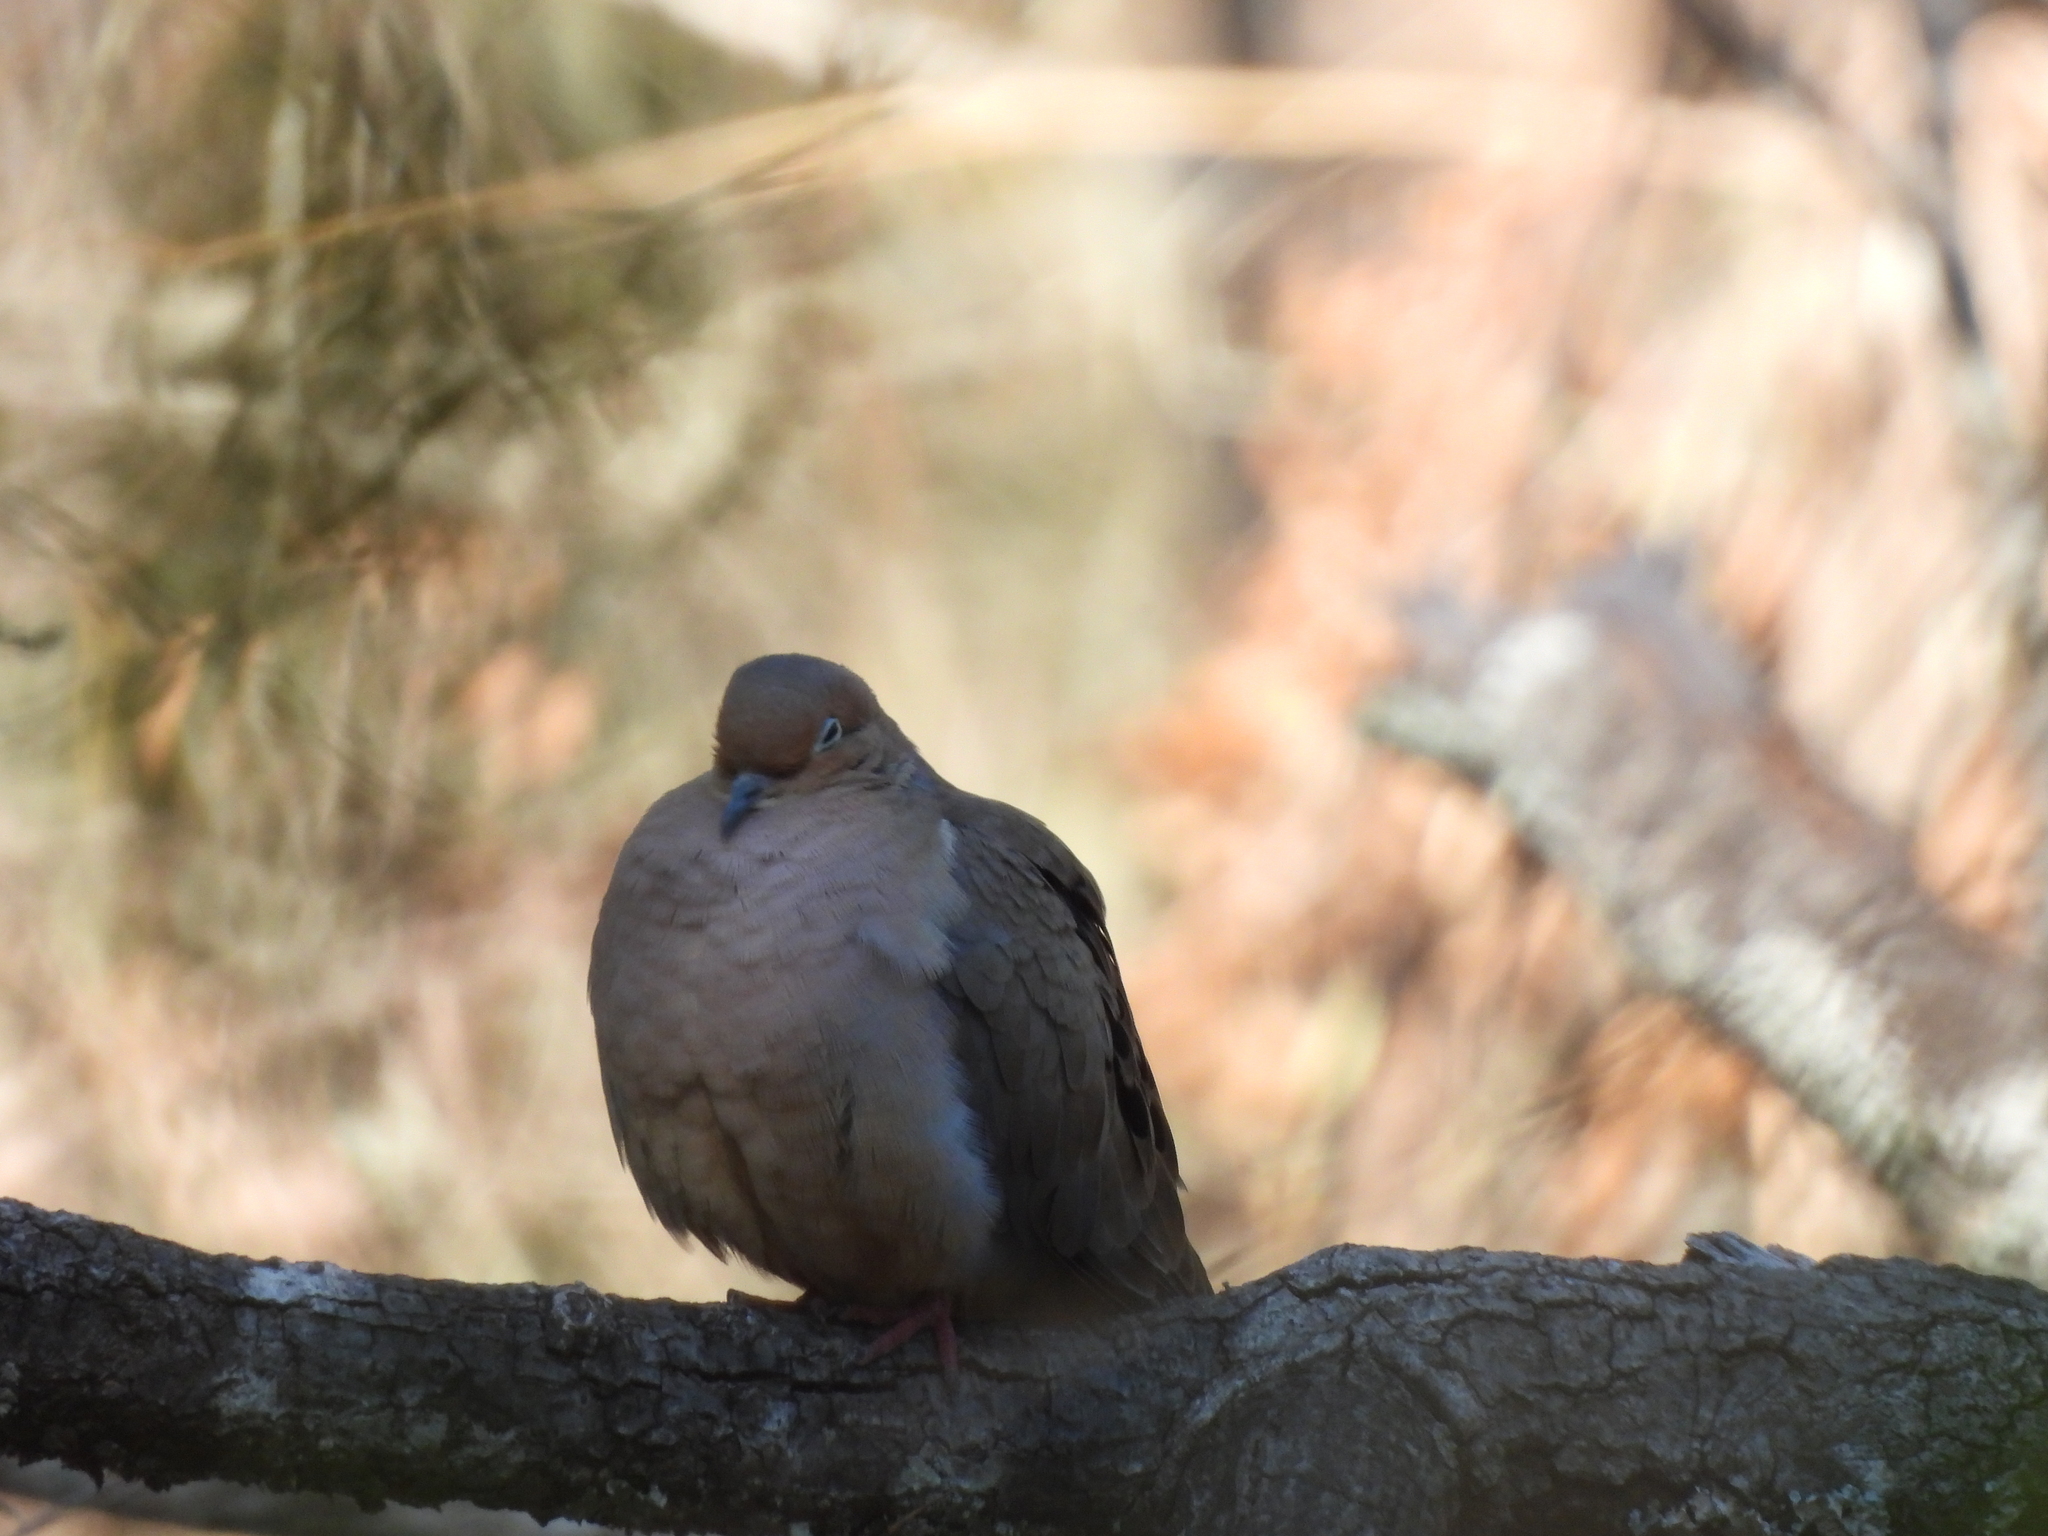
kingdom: Animalia
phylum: Chordata
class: Aves
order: Columbiformes
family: Columbidae
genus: Zenaida
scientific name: Zenaida macroura
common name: Mourning dove
